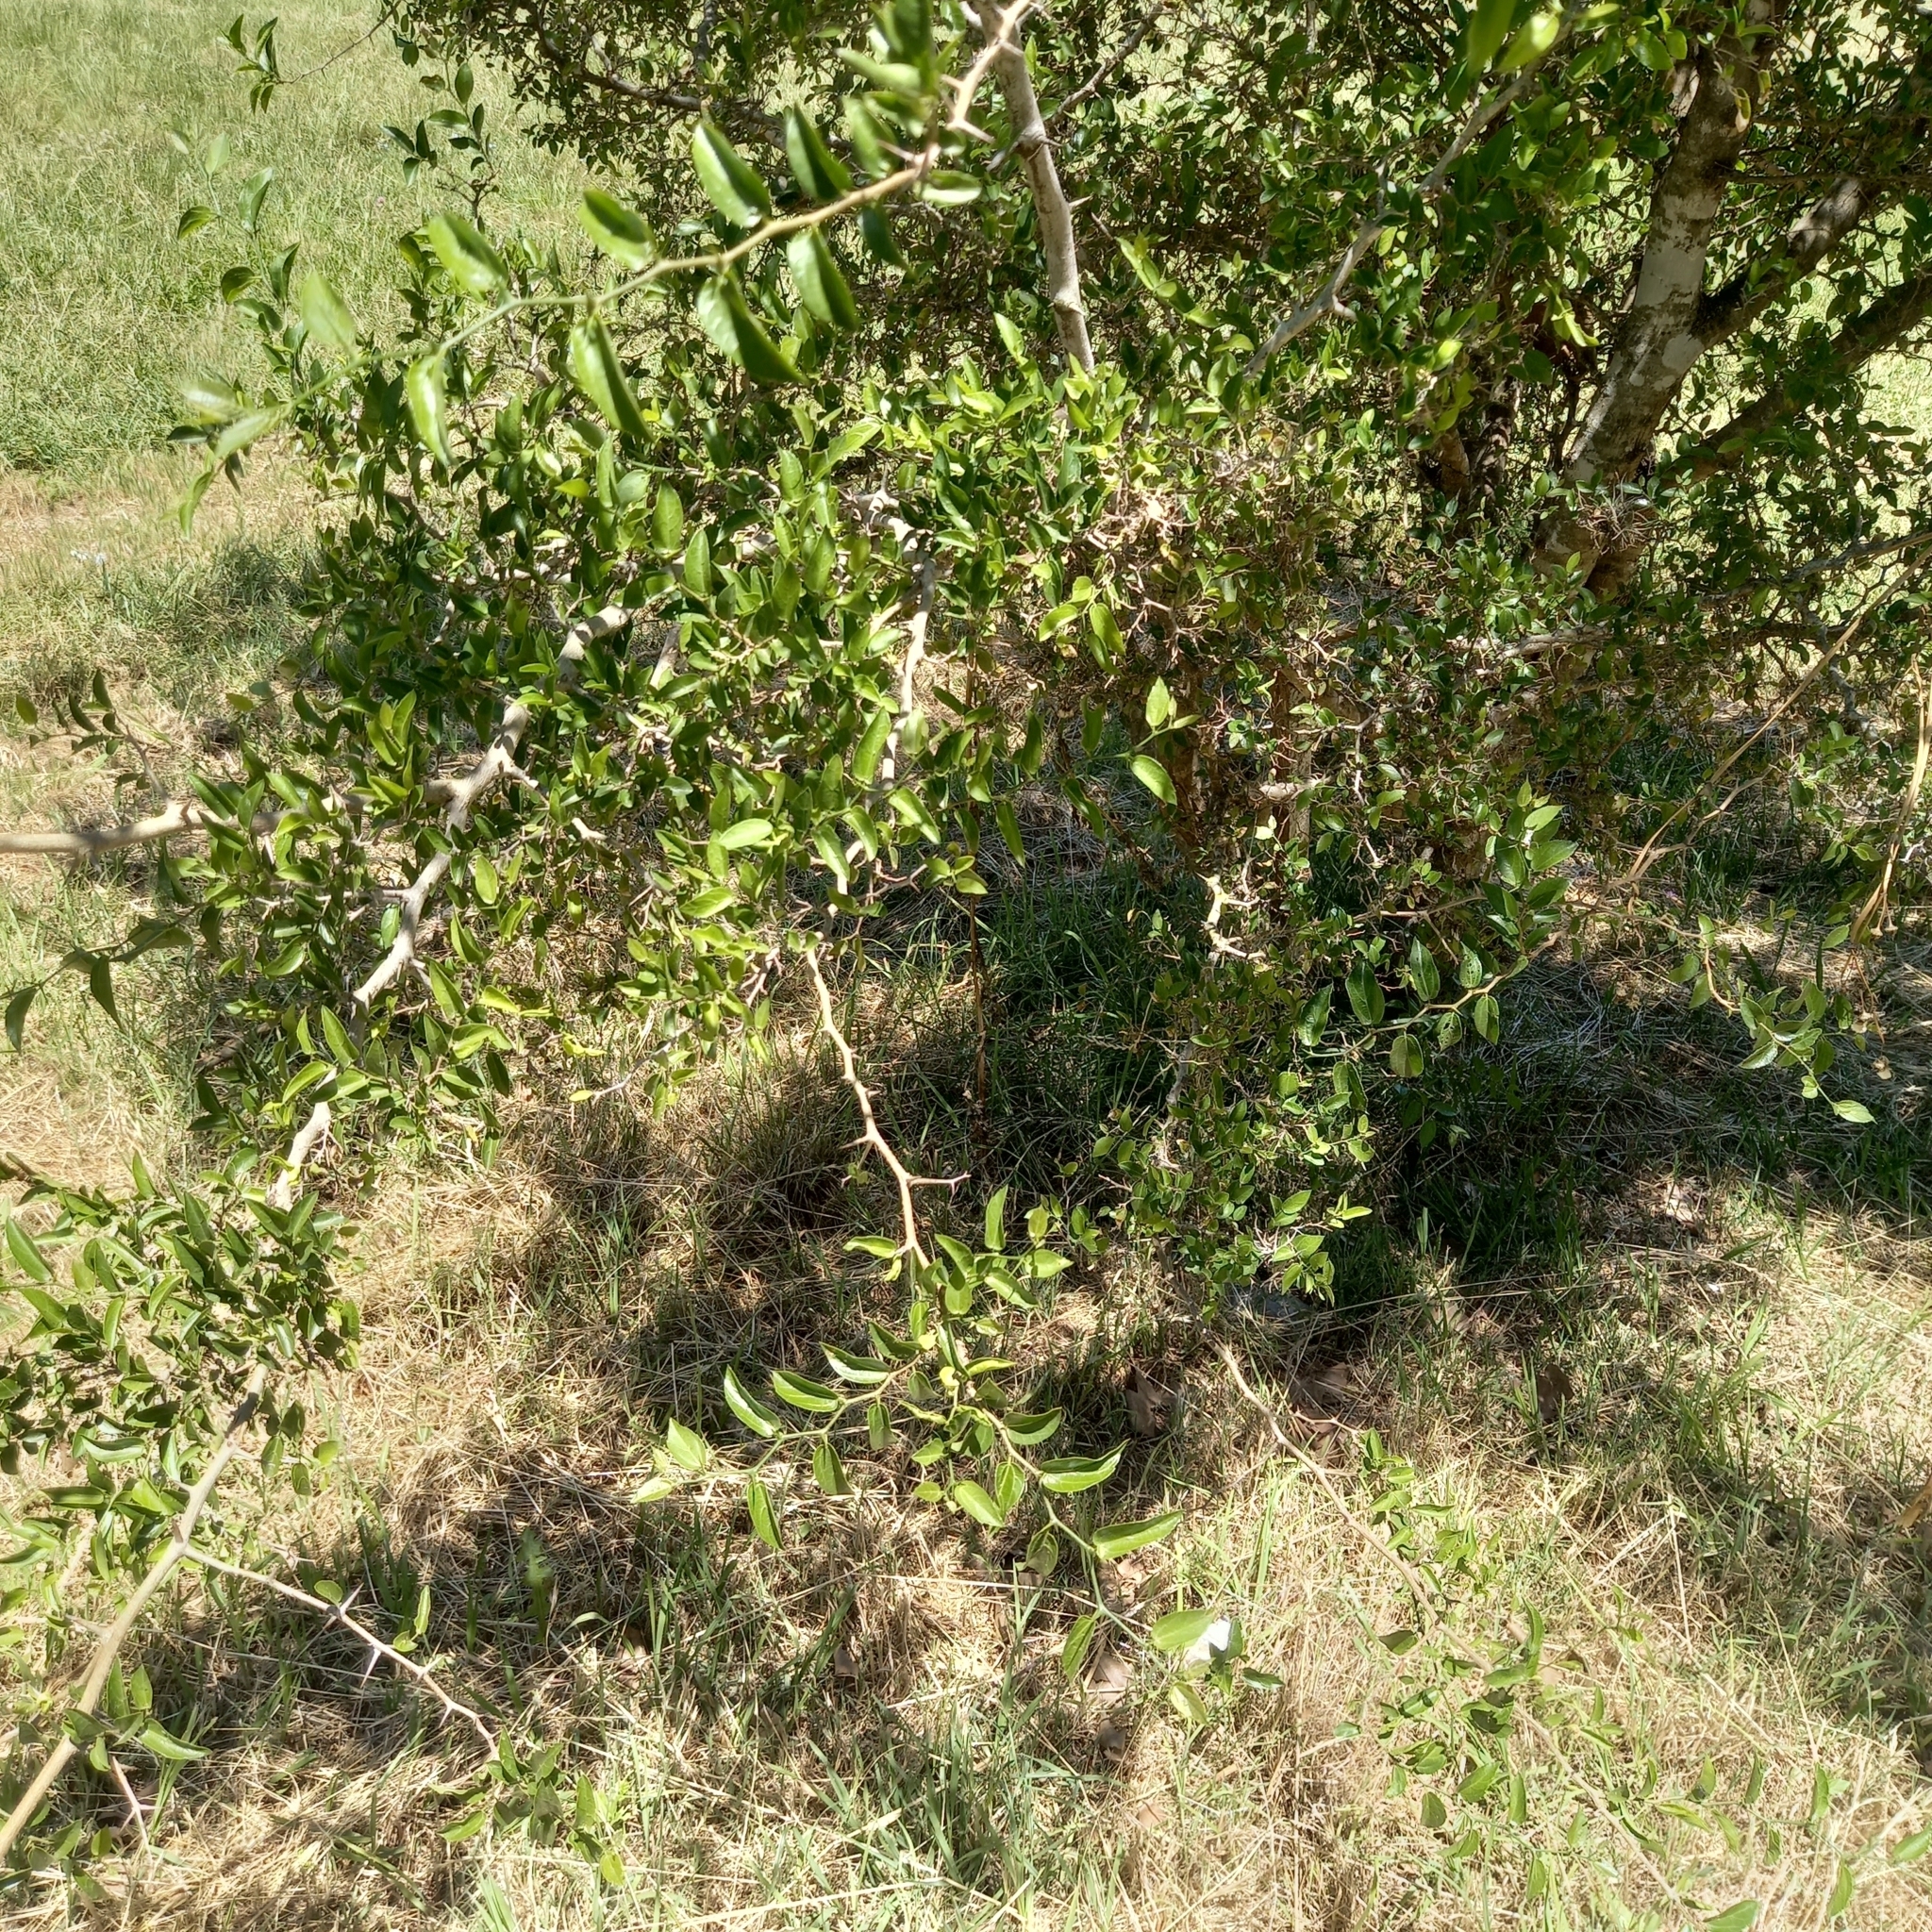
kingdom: Plantae
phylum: Tracheophyta
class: Magnoliopsida
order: Rosales
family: Cannabaceae
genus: Celtis
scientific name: Celtis tala
